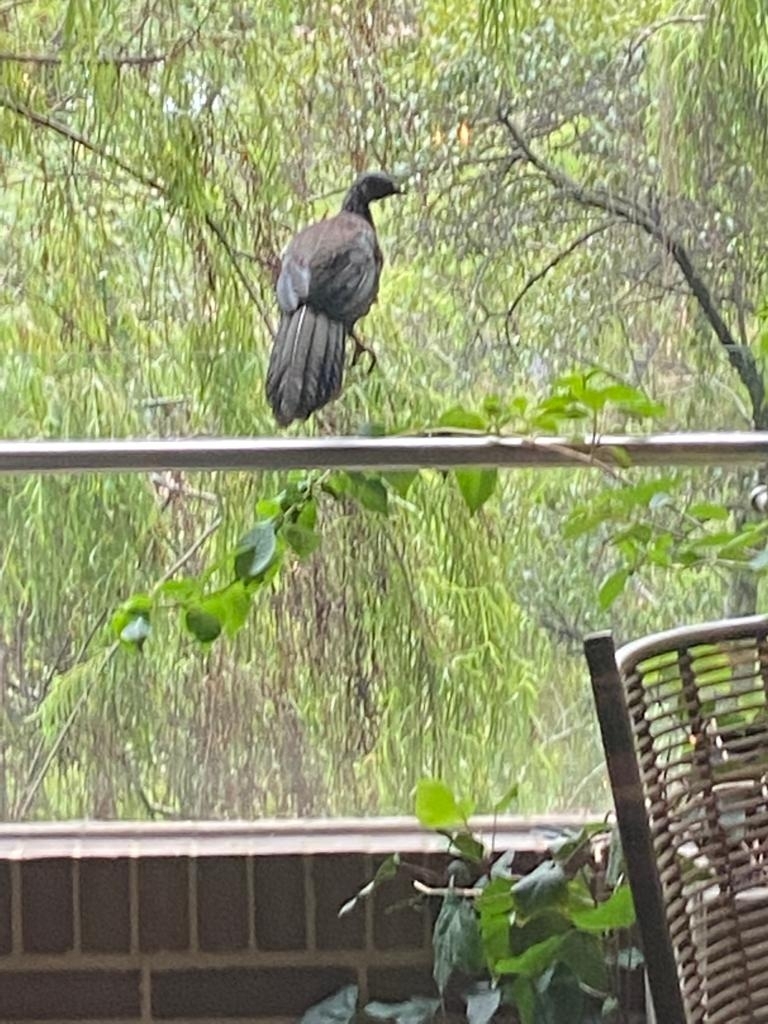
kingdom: Animalia
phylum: Chordata
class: Aves
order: Galliformes
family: Cracidae
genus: Penelope
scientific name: Penelope montagnii
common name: Andean guan
